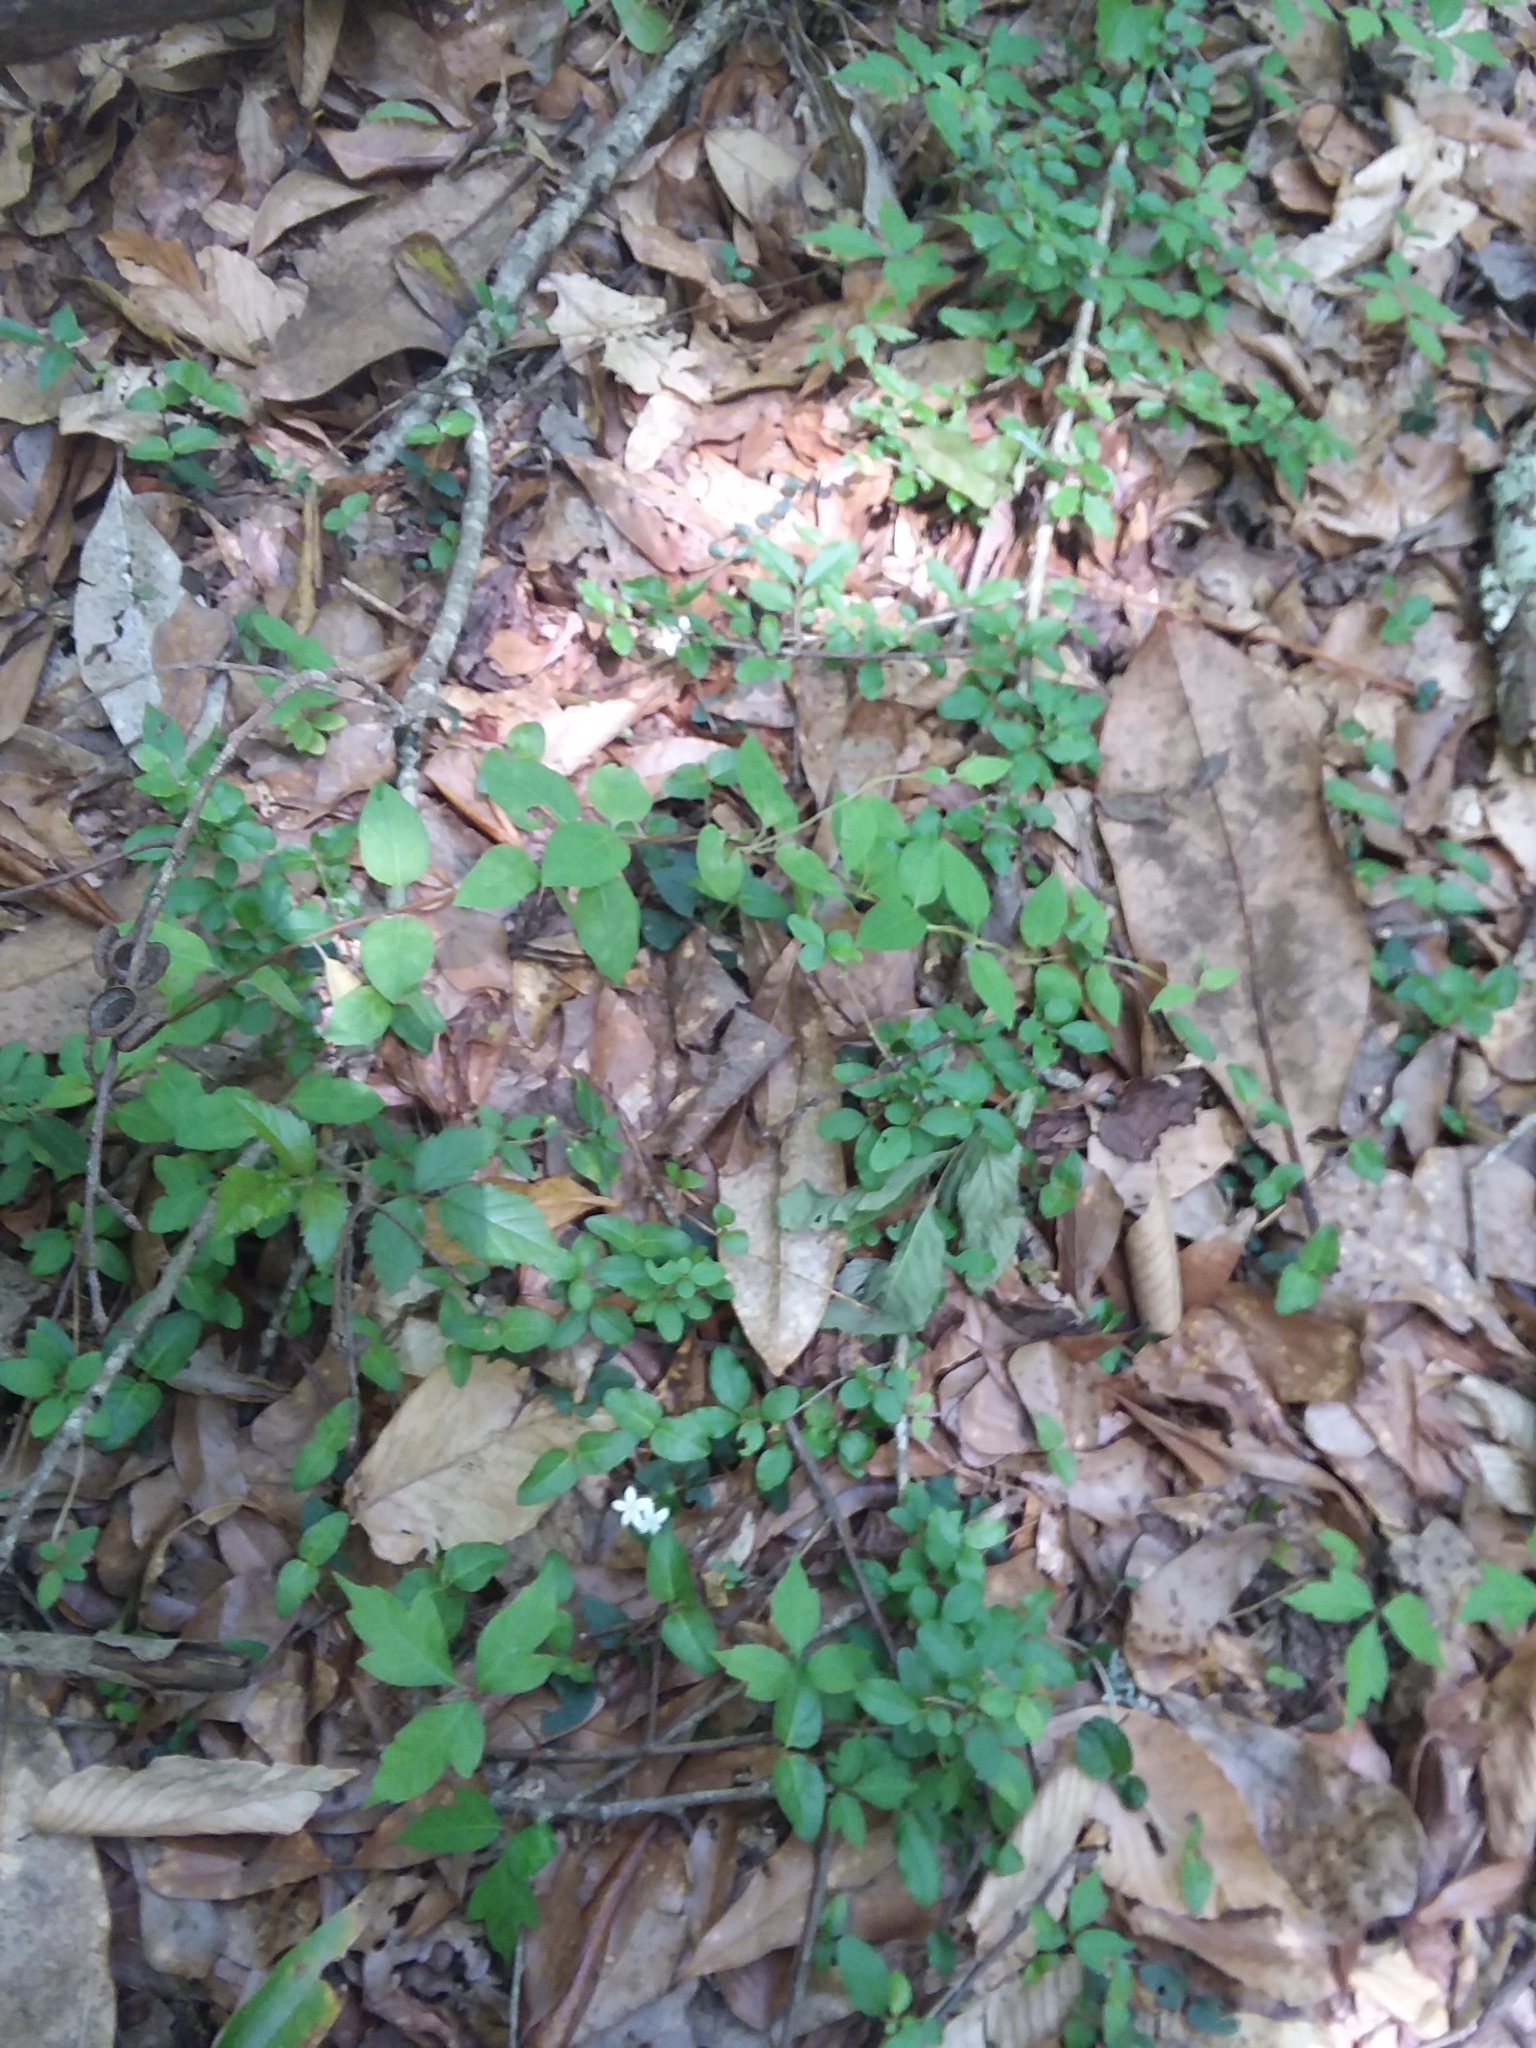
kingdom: Plantae
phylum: Tracheophyta
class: Magnoliopsida
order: Gentianales
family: Rubiaceae
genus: Mitchella
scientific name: Mitchella repens
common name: Partridge-berry
